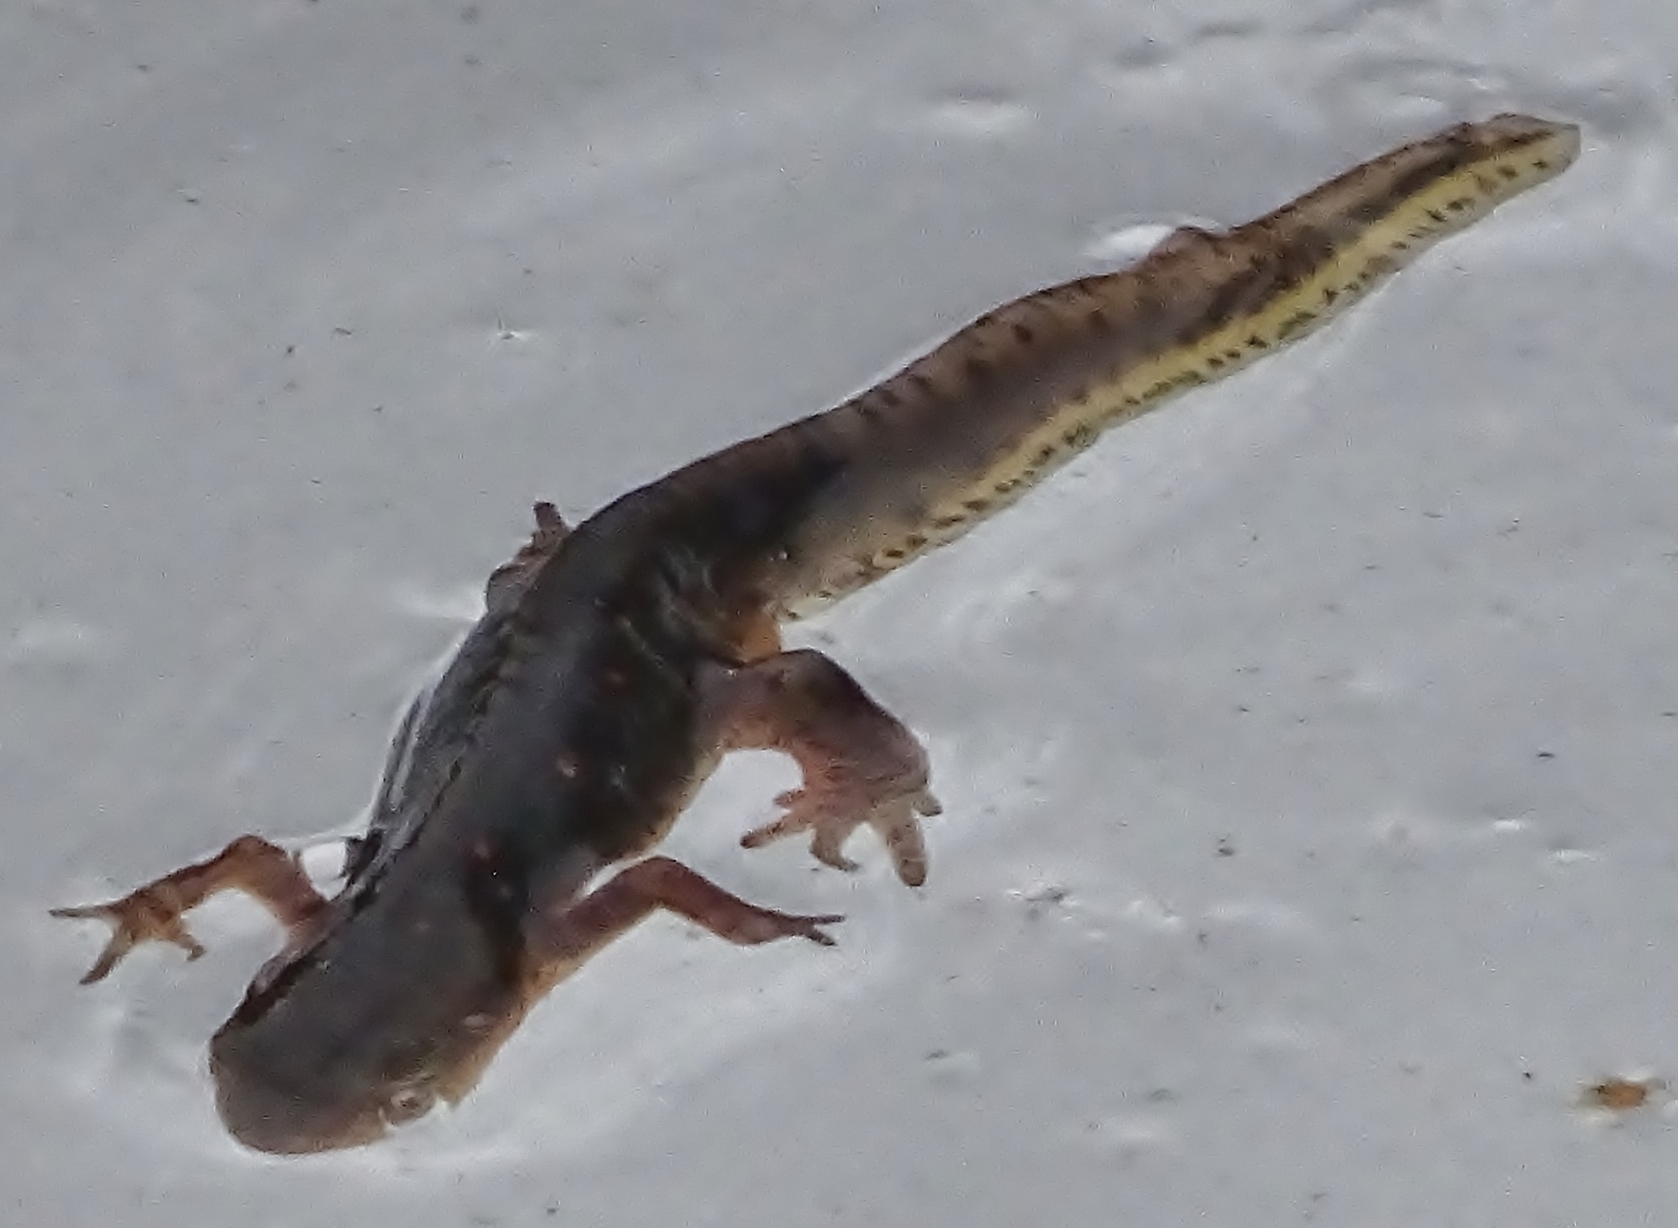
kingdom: Animalia
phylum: Chordata
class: Amphibia
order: Caudata
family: Salamandridae
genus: Notophthalmus
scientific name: Notophthalmus viridescens
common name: Eastern newt
